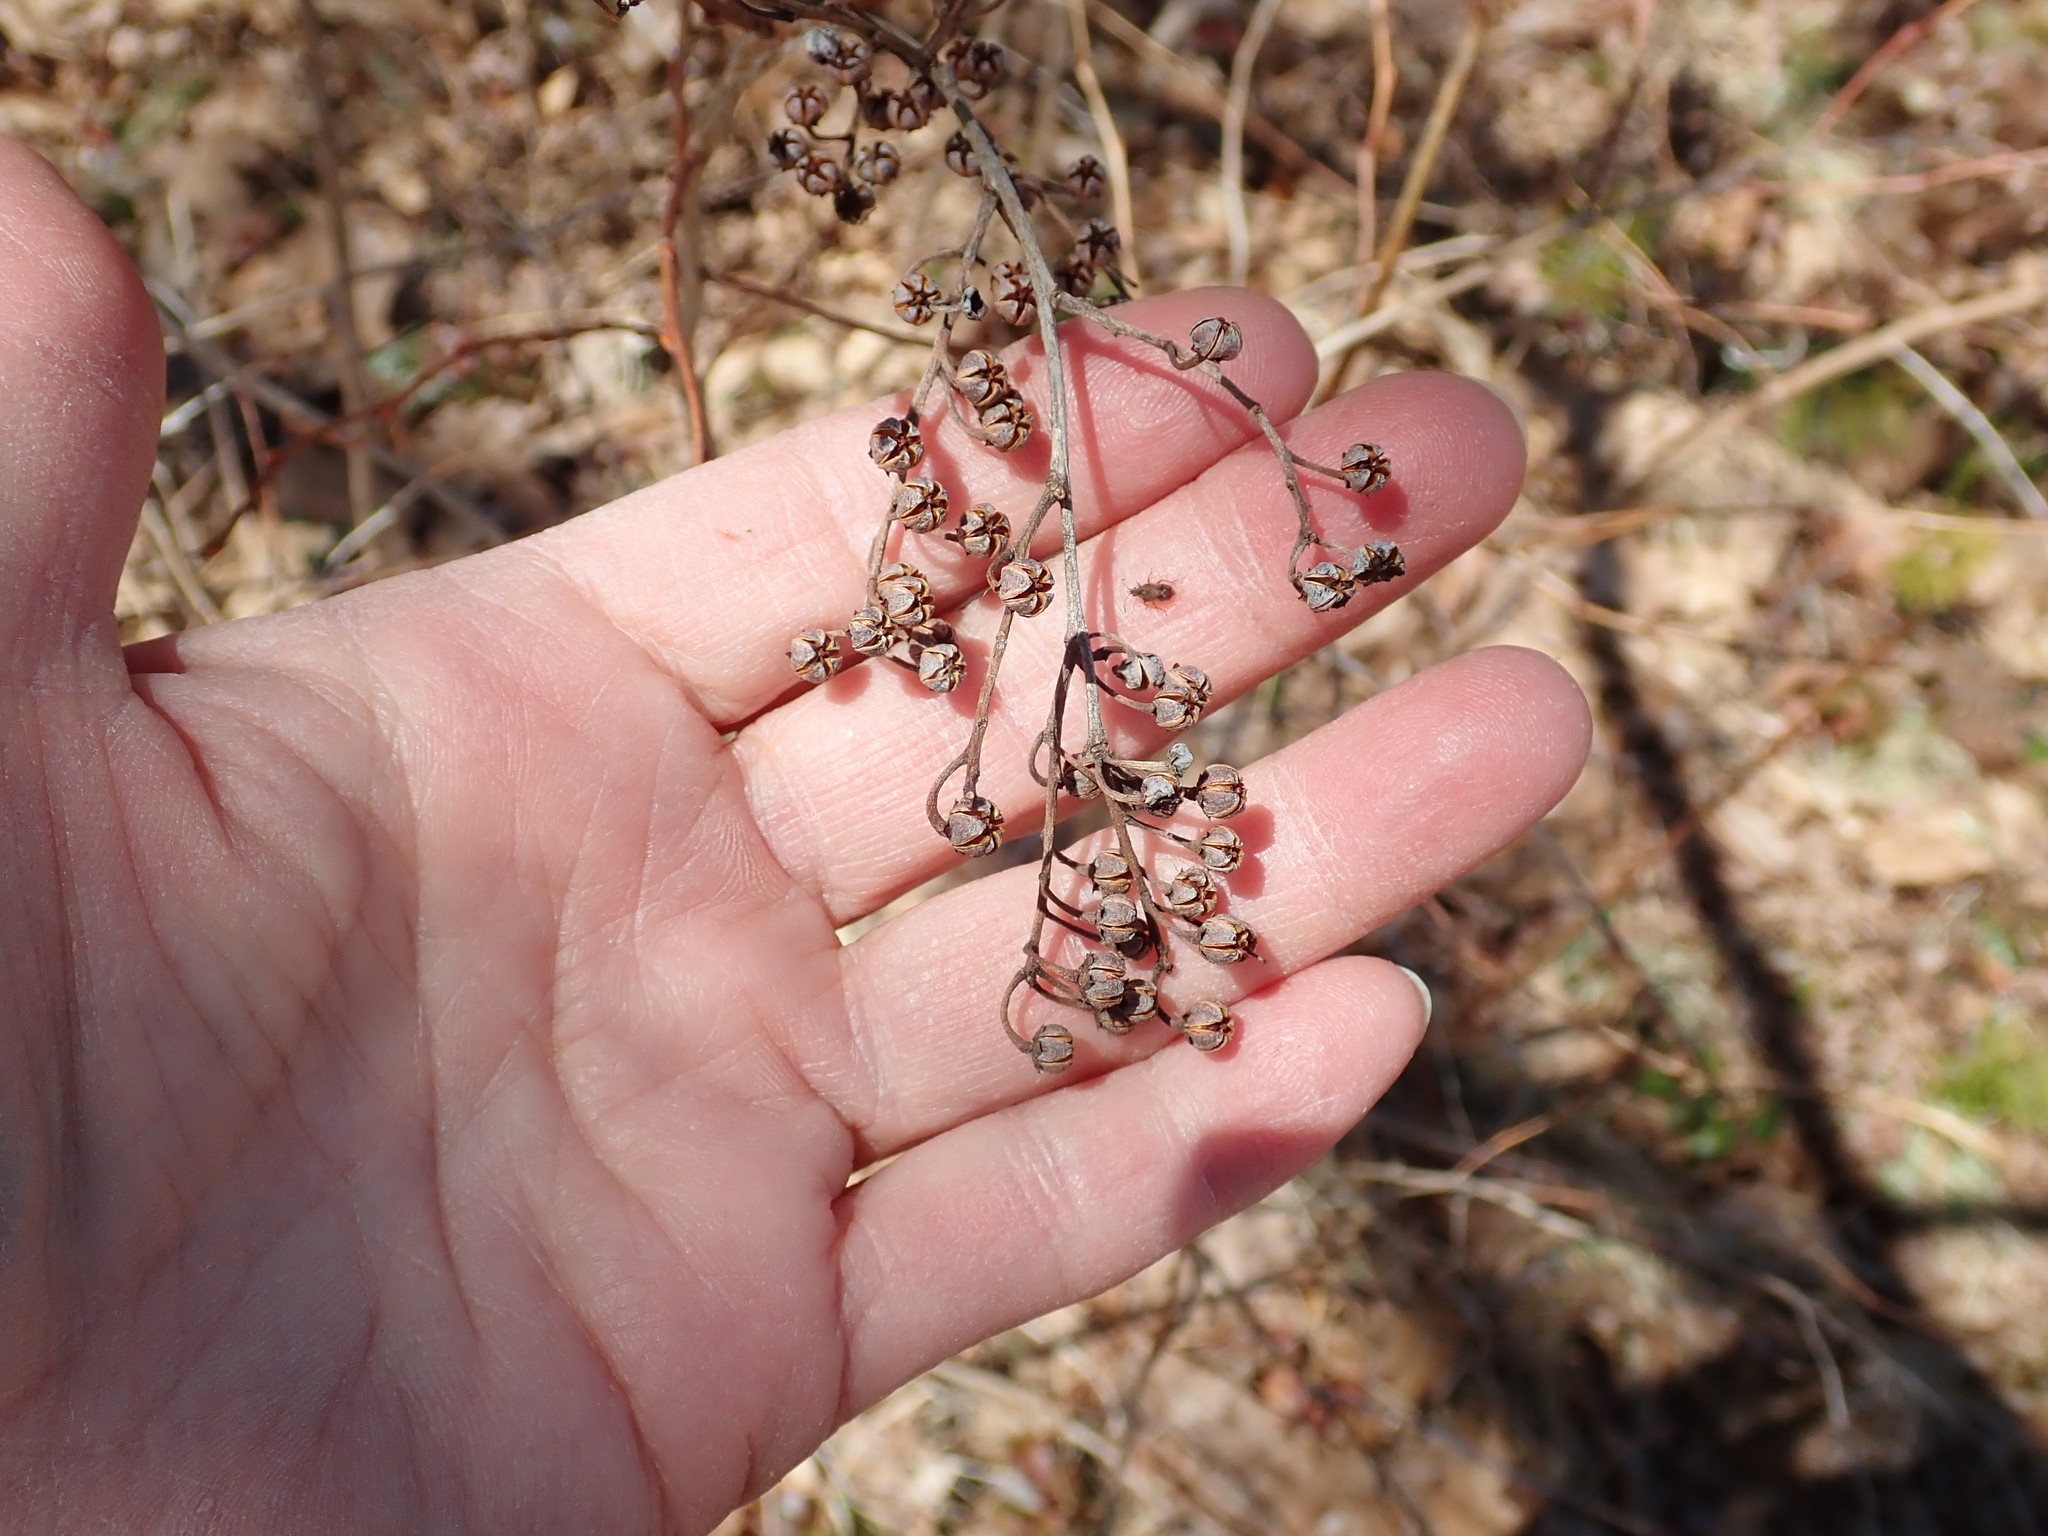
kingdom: Plantae
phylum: Tracheophyta
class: Magnoliopsida
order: Ericales
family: Ericaceae
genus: Lyonia
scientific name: Lyonia ligustrina
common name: Maleberry
